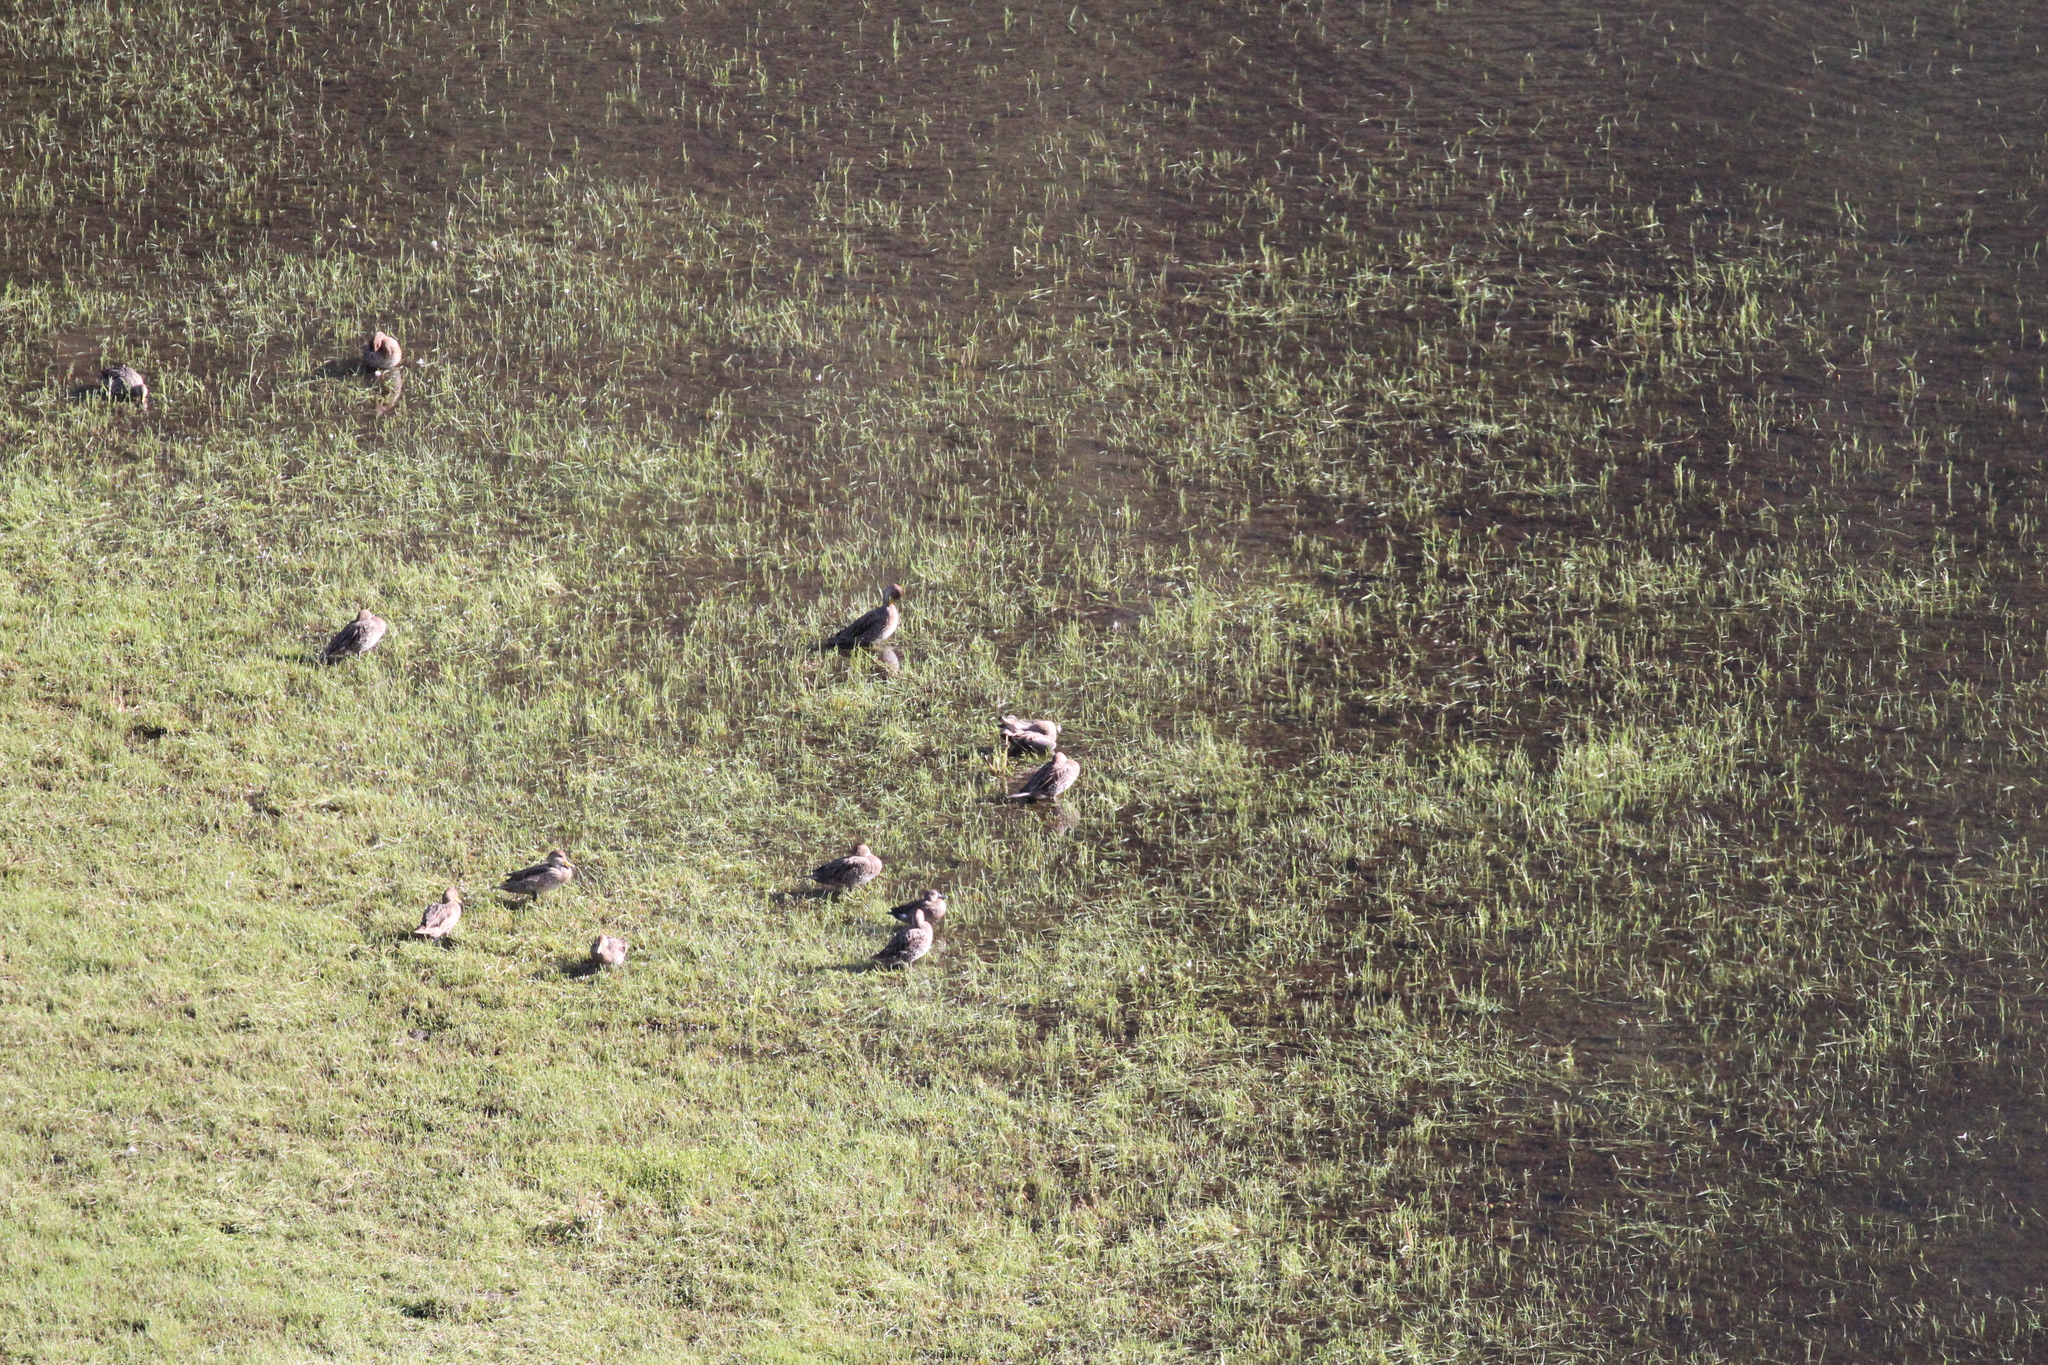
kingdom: Animalia
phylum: Chordata
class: Aves
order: Anseriformes
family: Anatidae
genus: Anas
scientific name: Anas georgica
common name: Yellow-billed pintail
